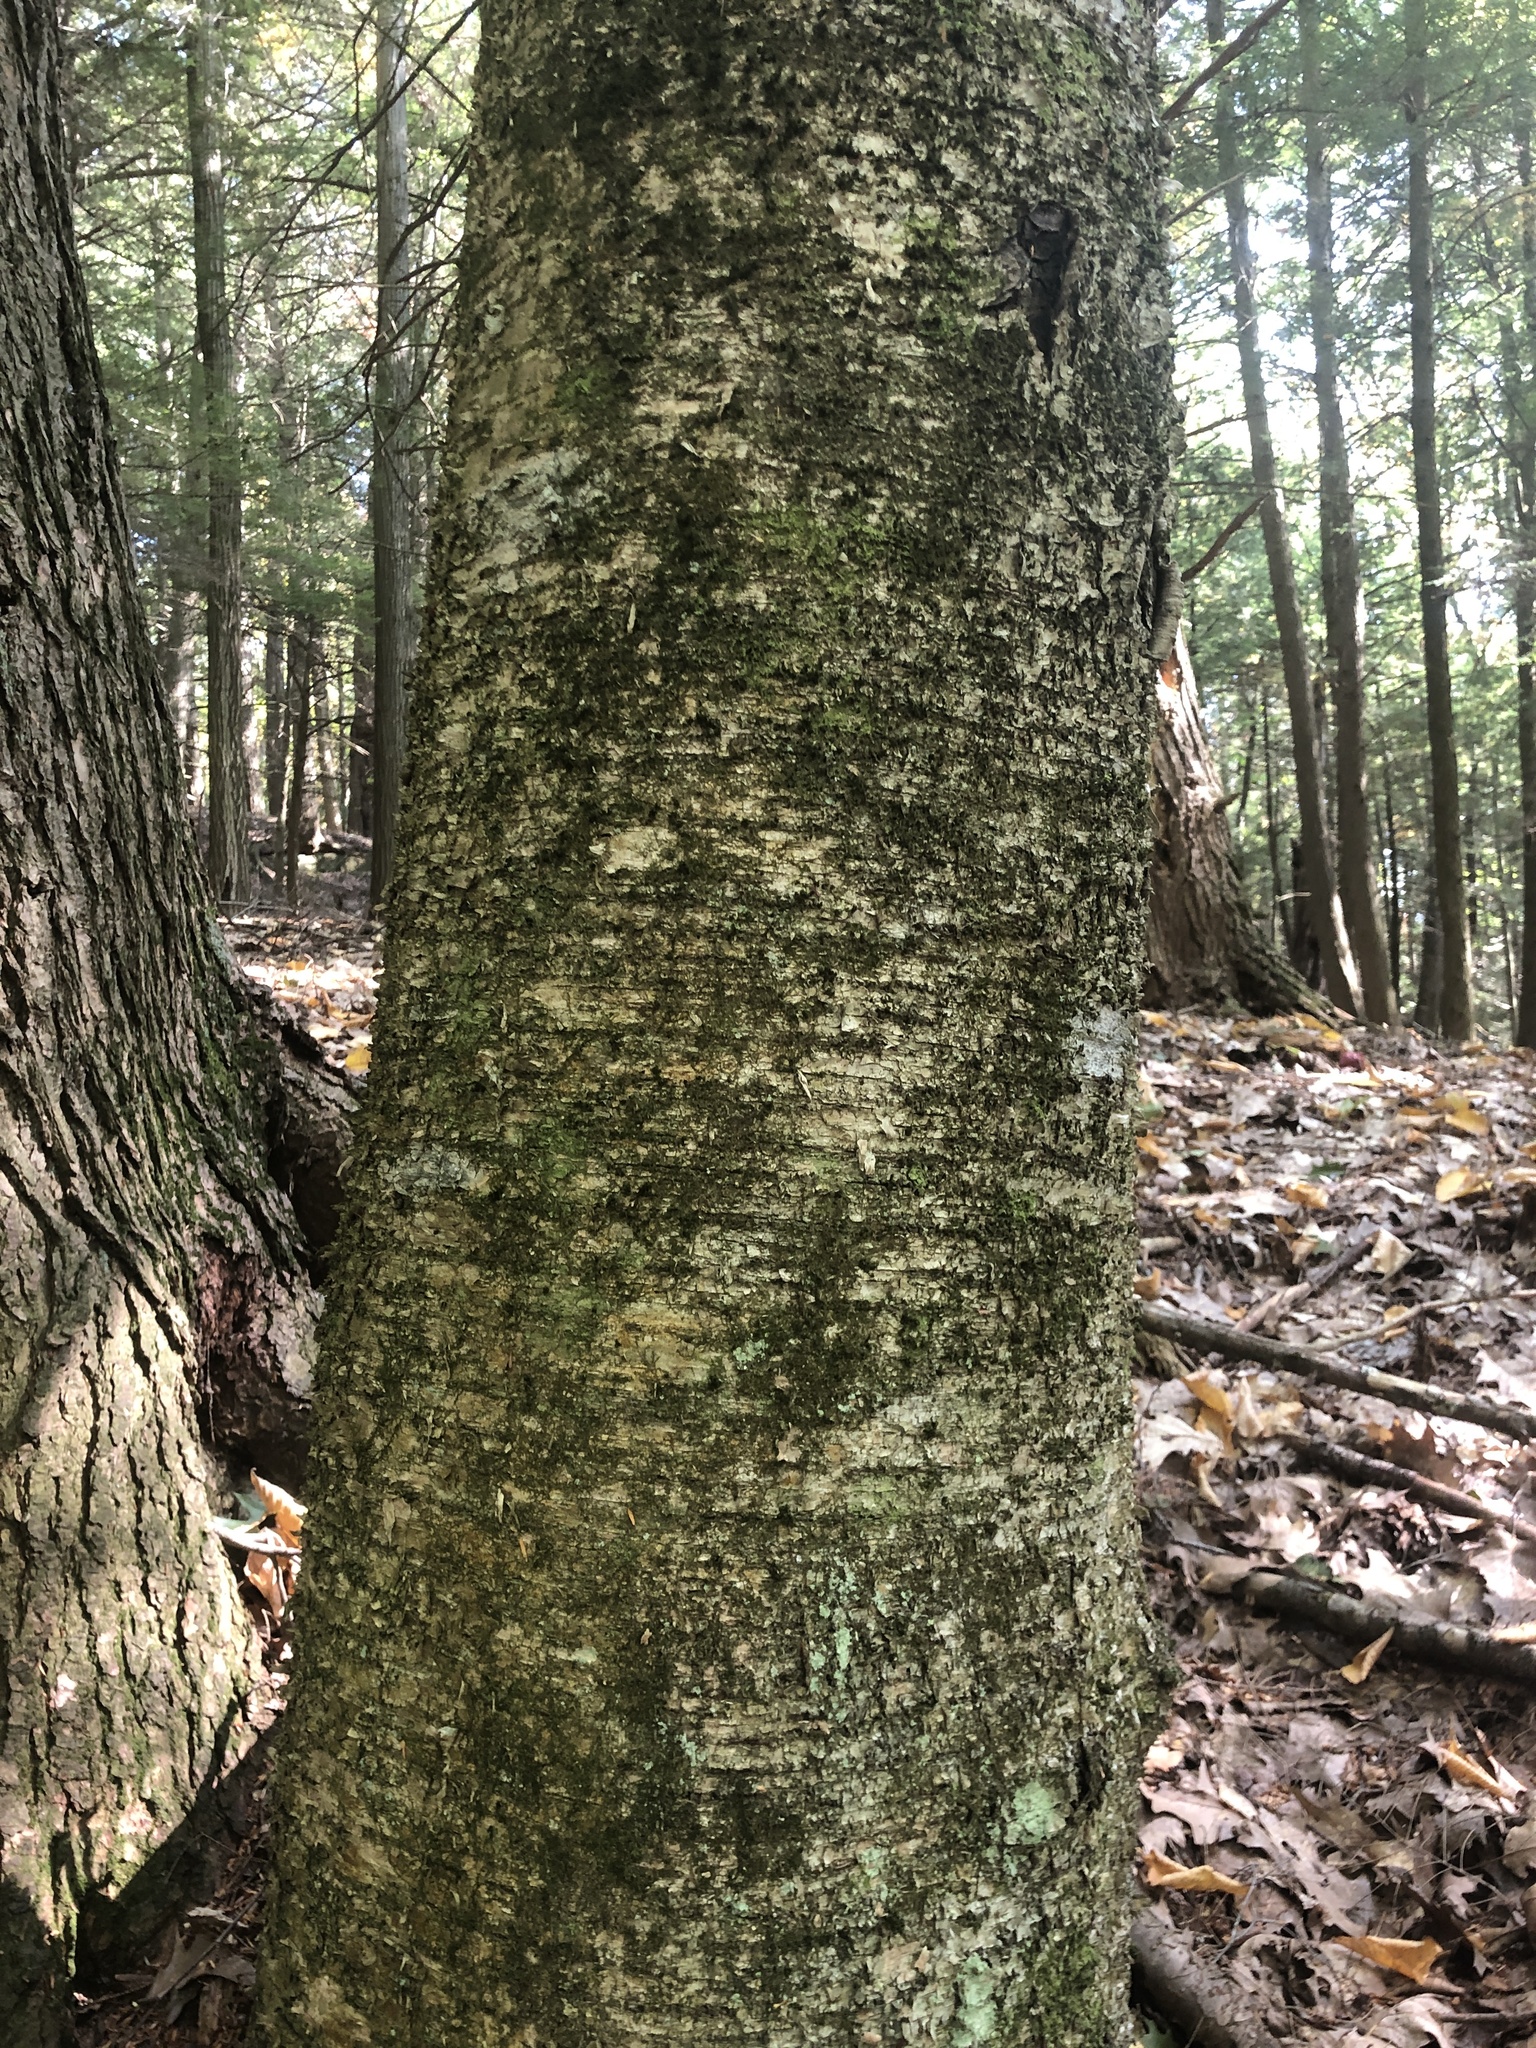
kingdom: Plantae
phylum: Tracheophyta
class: Magnoliopsida
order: Fagales
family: Betulaceae
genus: Betula
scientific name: Betula alleghaniensis
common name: Yellow birch
